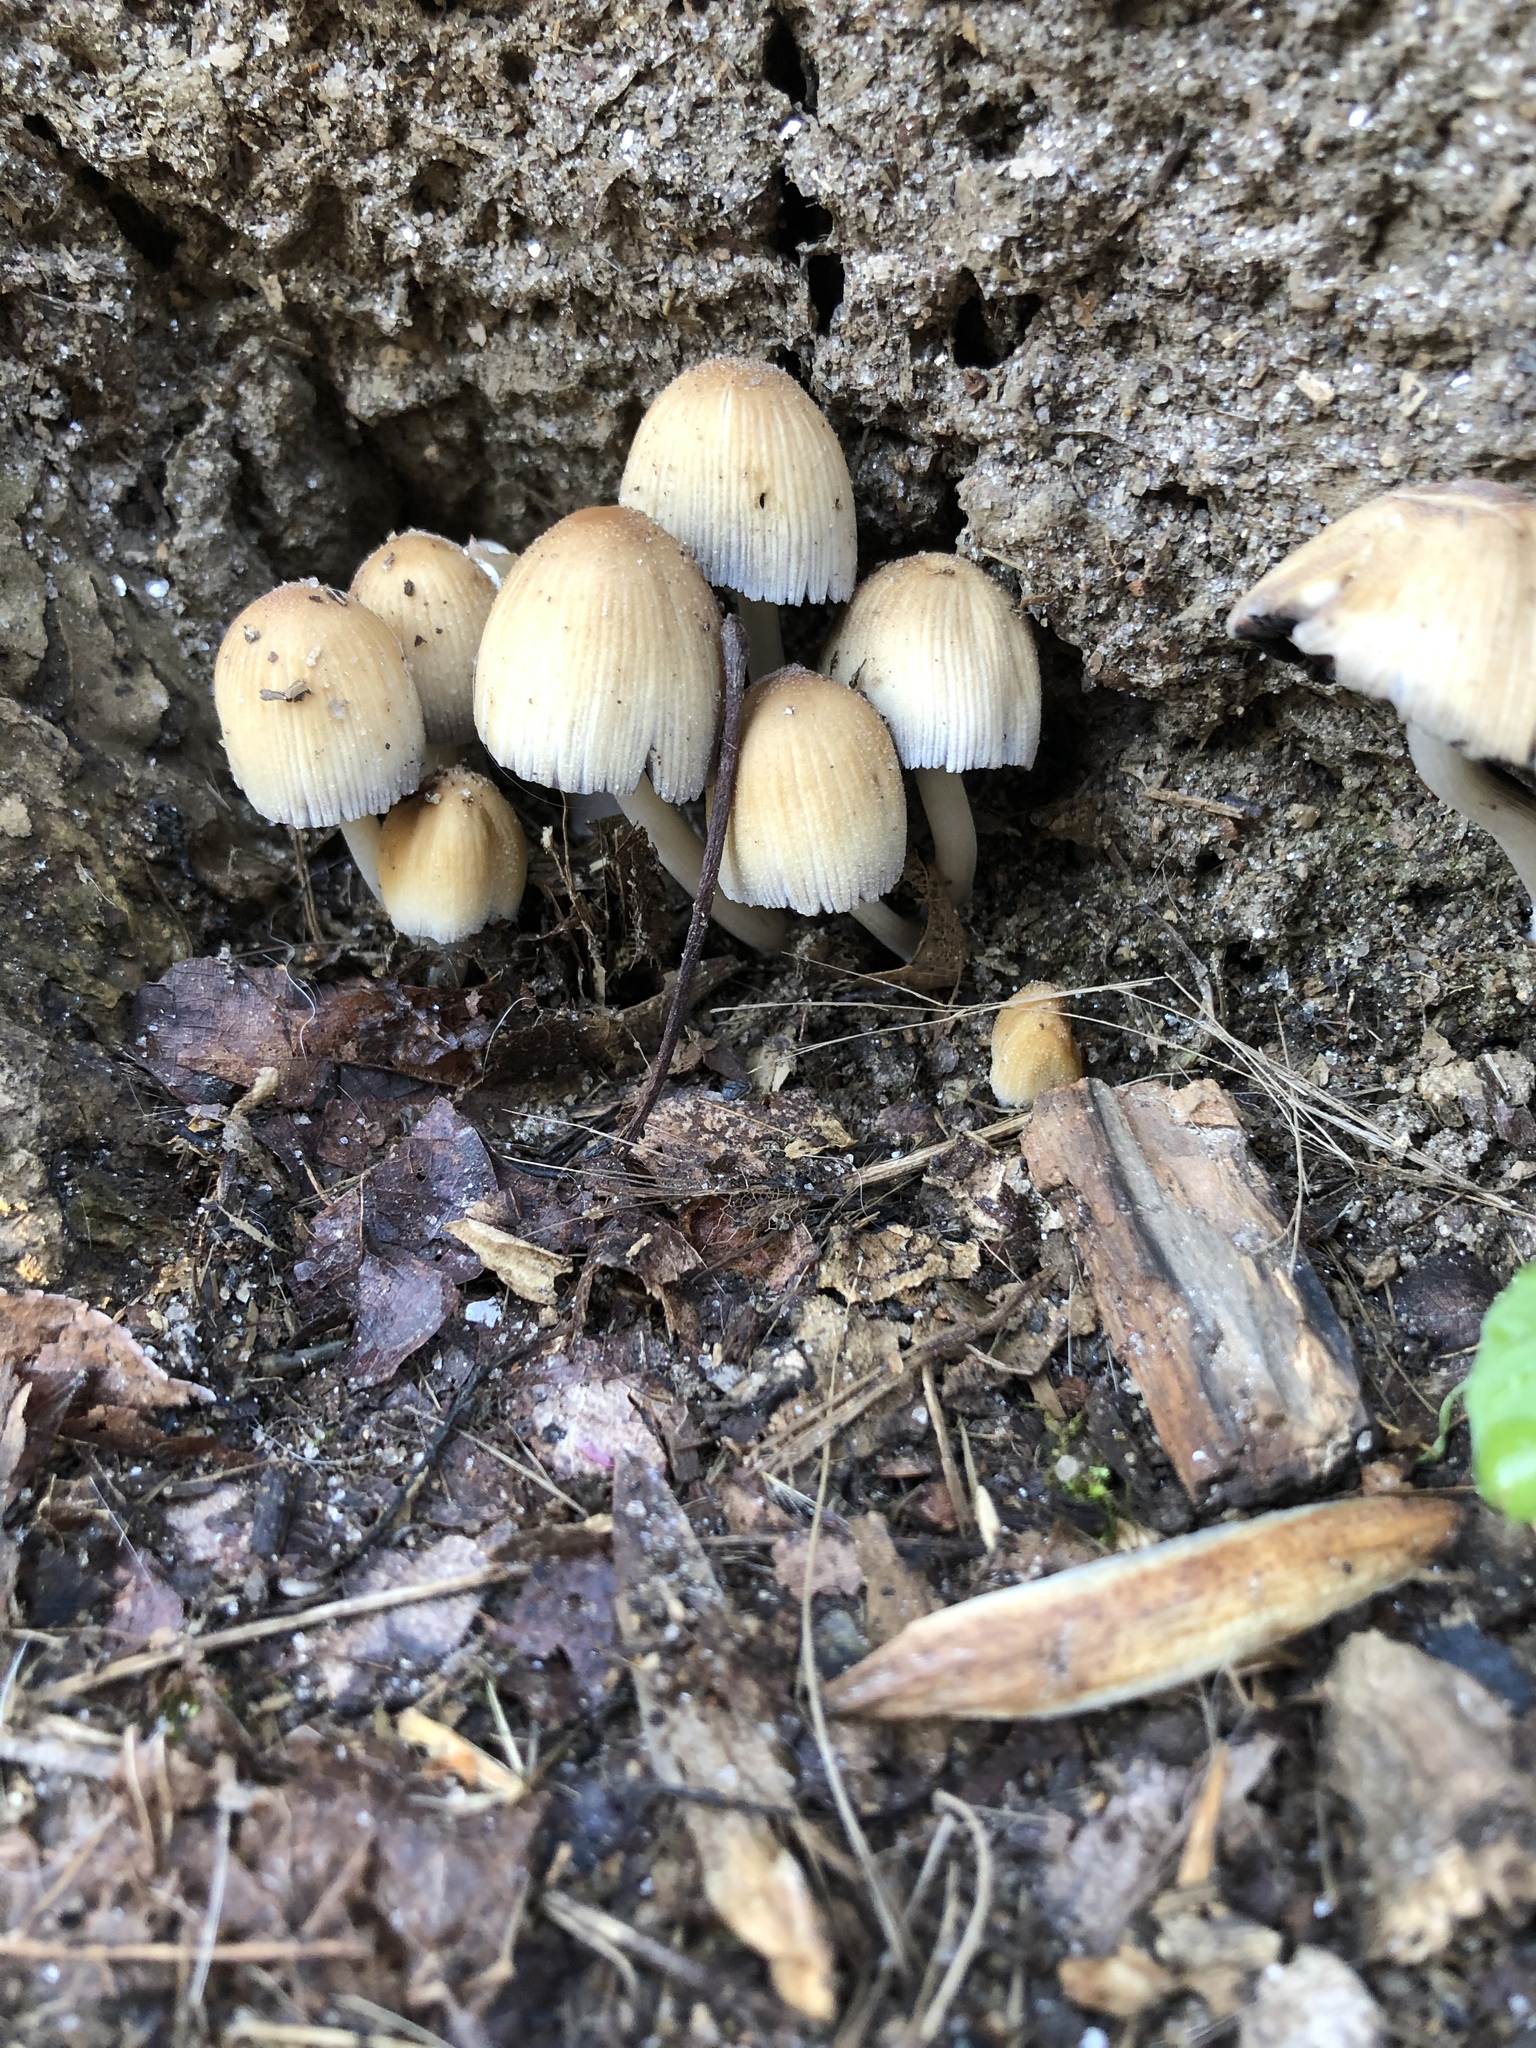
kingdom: Fungi
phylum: Basidiomycota
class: Agaricomycetes
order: Agaricales
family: Psathyrellaceae
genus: Coprinellus
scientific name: Coprinellus micaceus
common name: Glistening ink-cap
